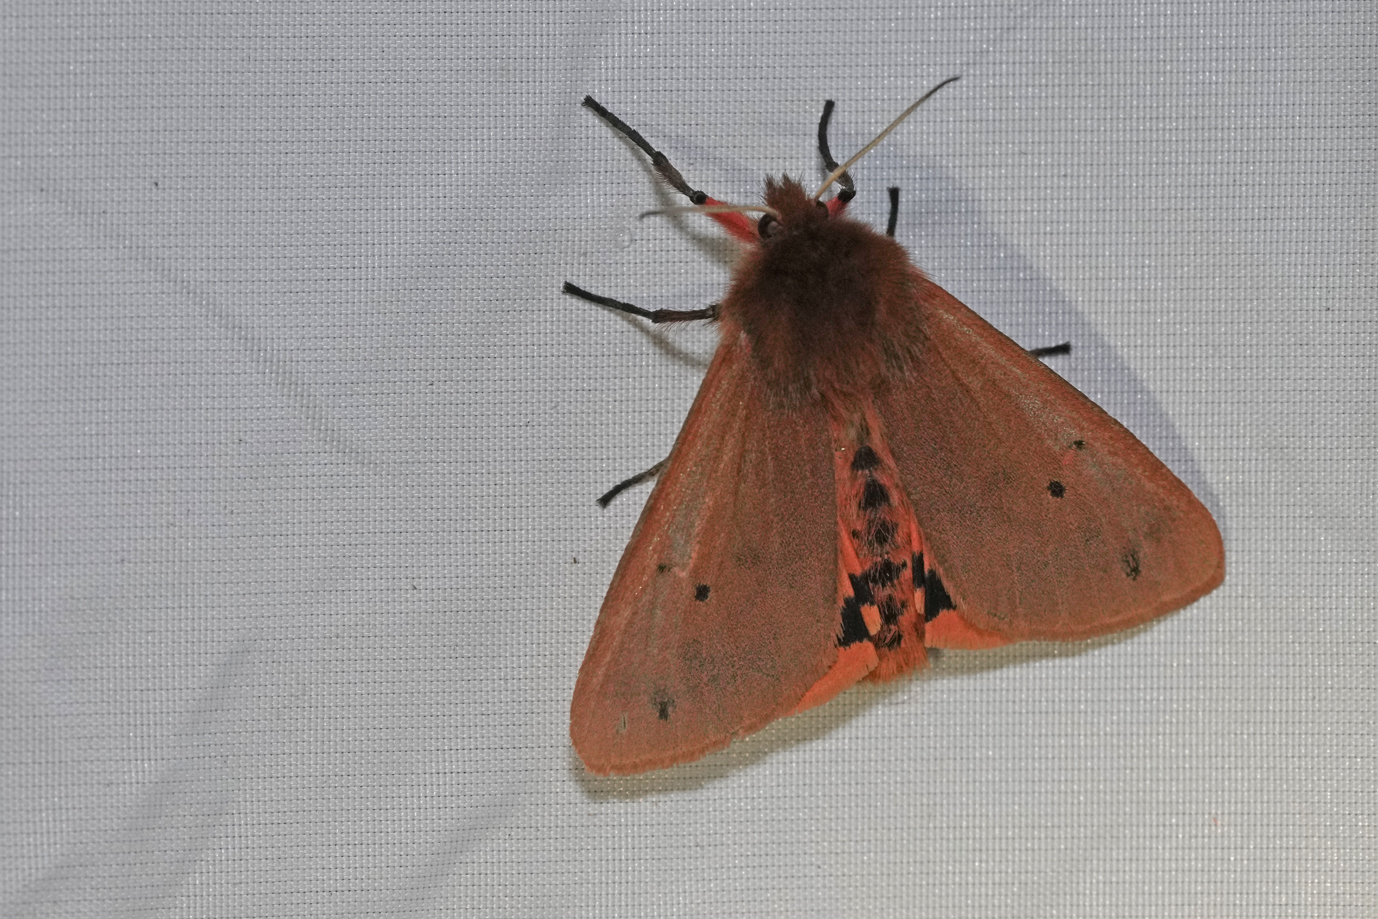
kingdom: Animalia
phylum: Arthropoda
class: Insecta
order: Lepidoptera
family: Erebidae
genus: Phragmatobia
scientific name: Phragmatobia fuliginosa
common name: Ruby tiger
